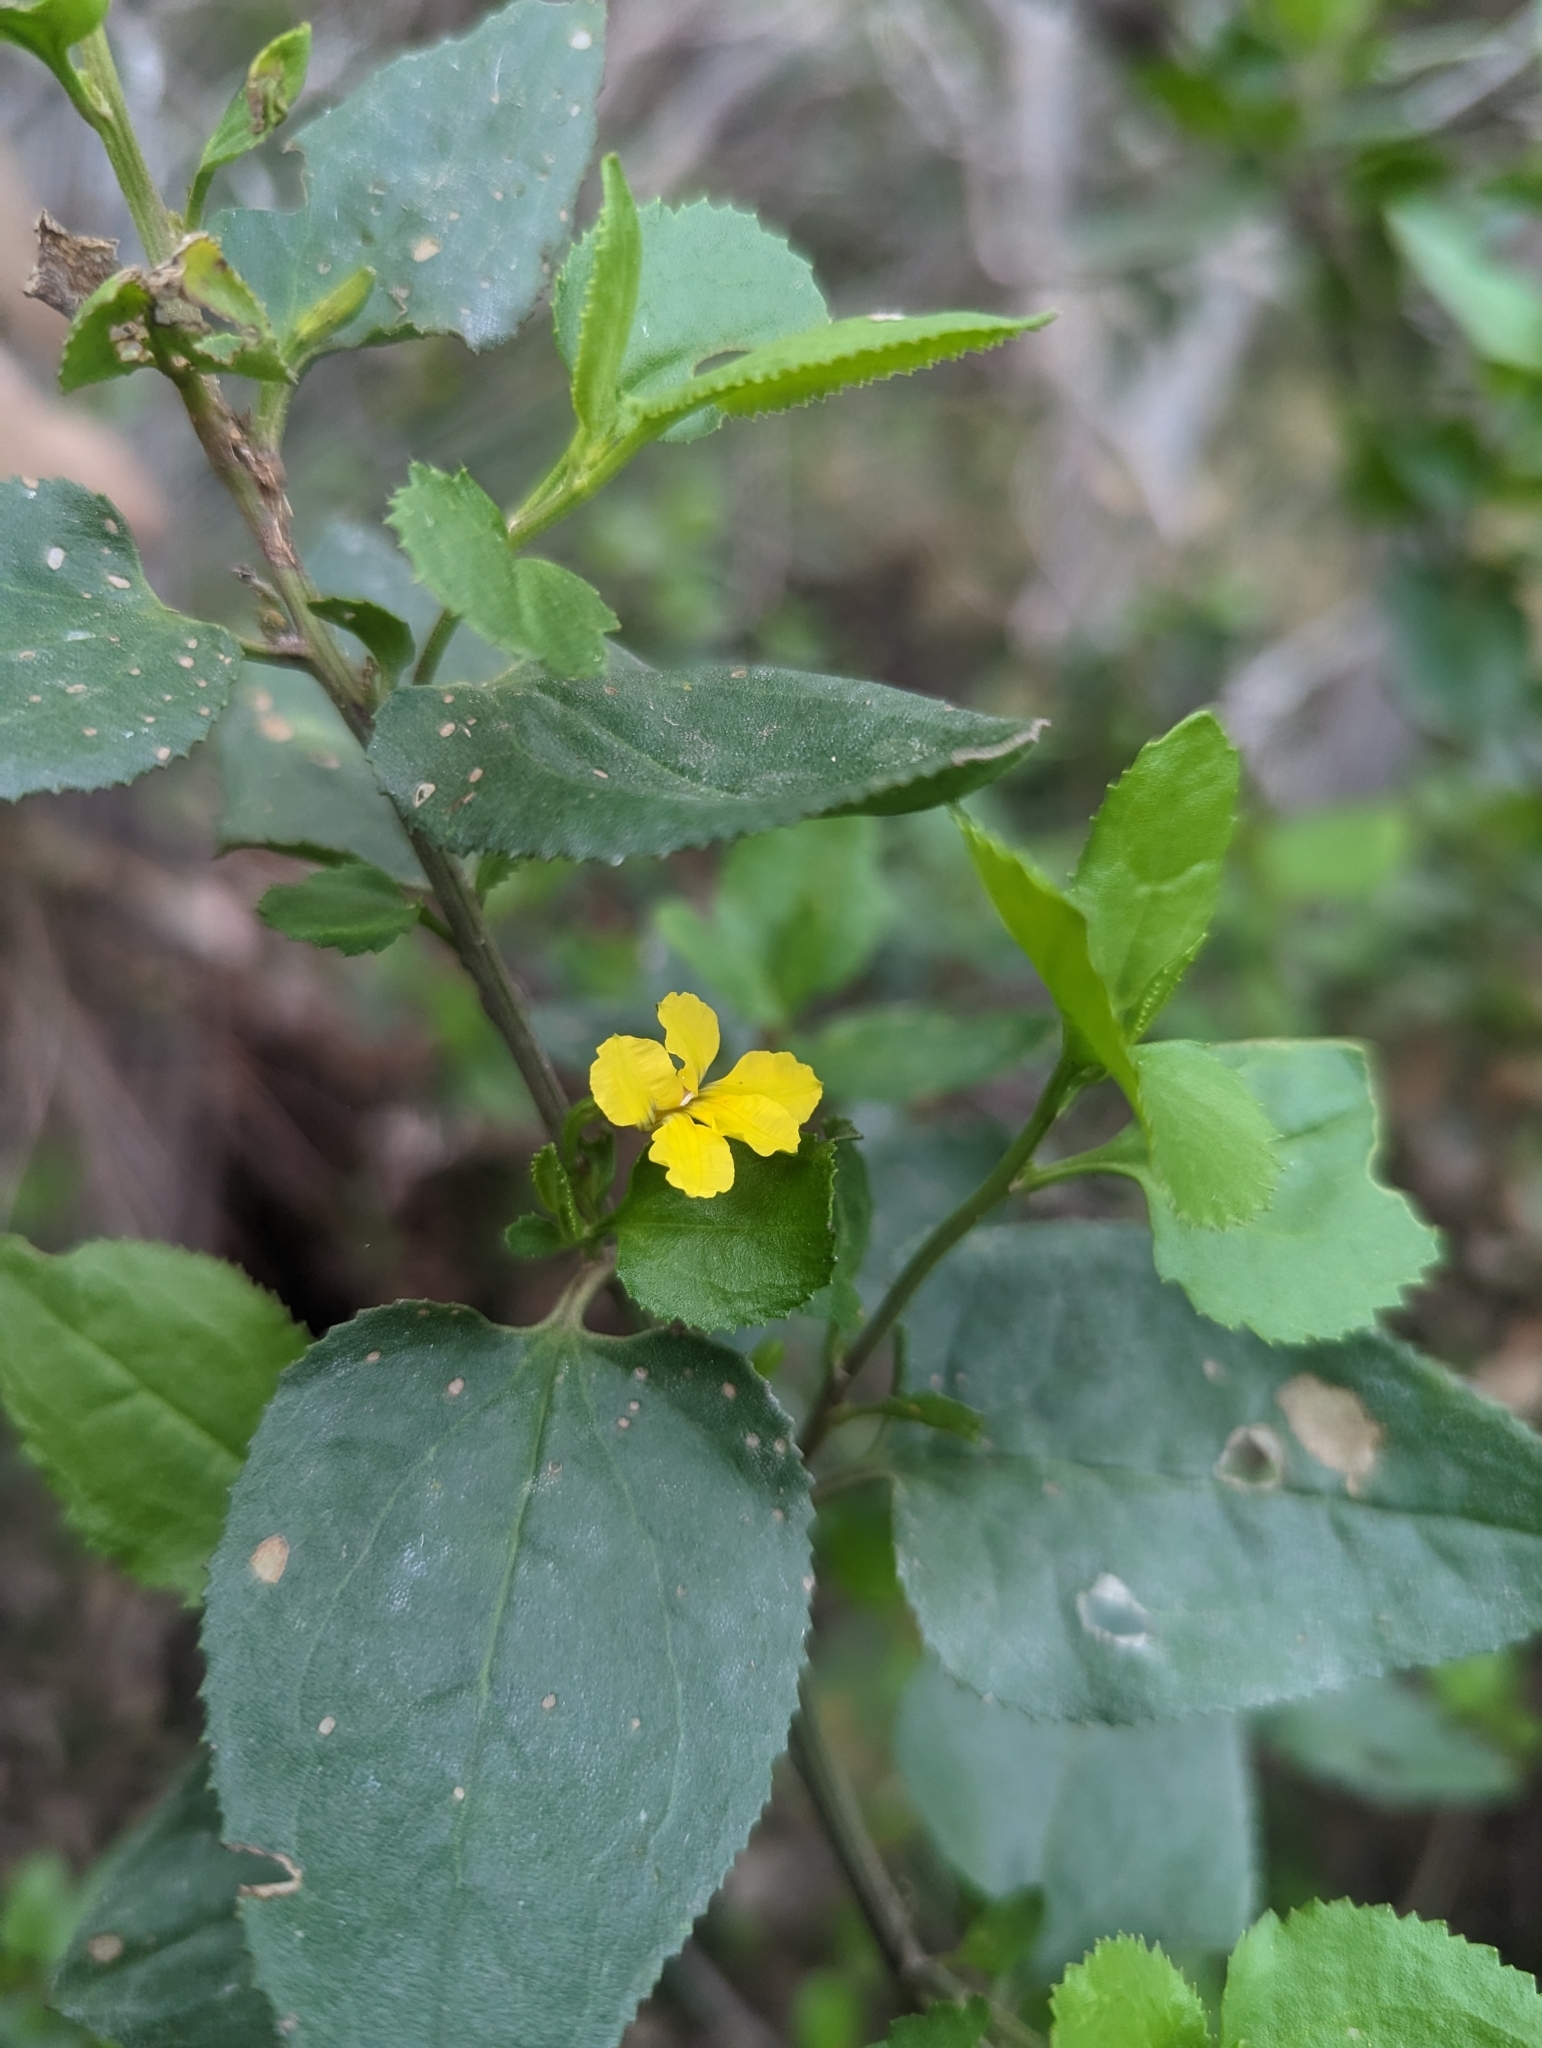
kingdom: Plantae
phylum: Tracheophyta
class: Magnoliopsida
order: Asterales
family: Goodeniaceae
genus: Goodenia
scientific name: Goodenia ovata
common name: Hop goodenia
